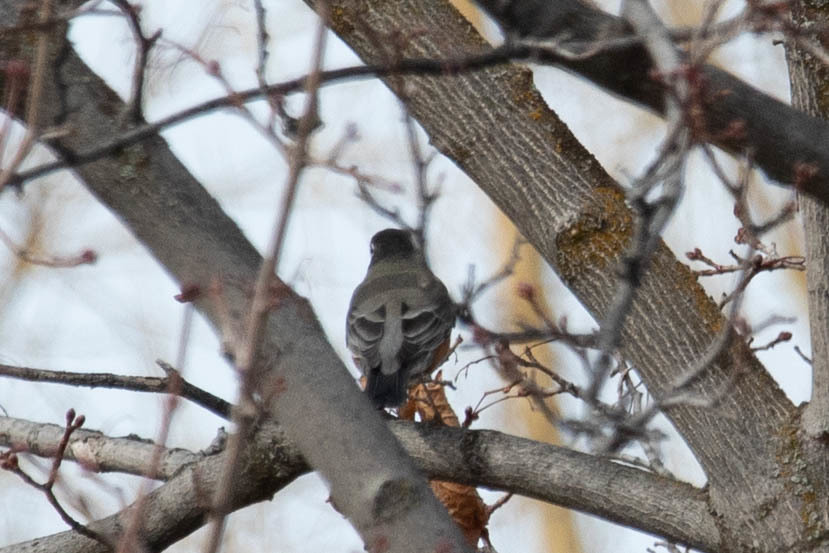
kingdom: Animalia
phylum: Chordata
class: Aves
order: Passeriformes
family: Turdidae
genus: Turdus
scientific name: Turdus migratorius
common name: American robin
